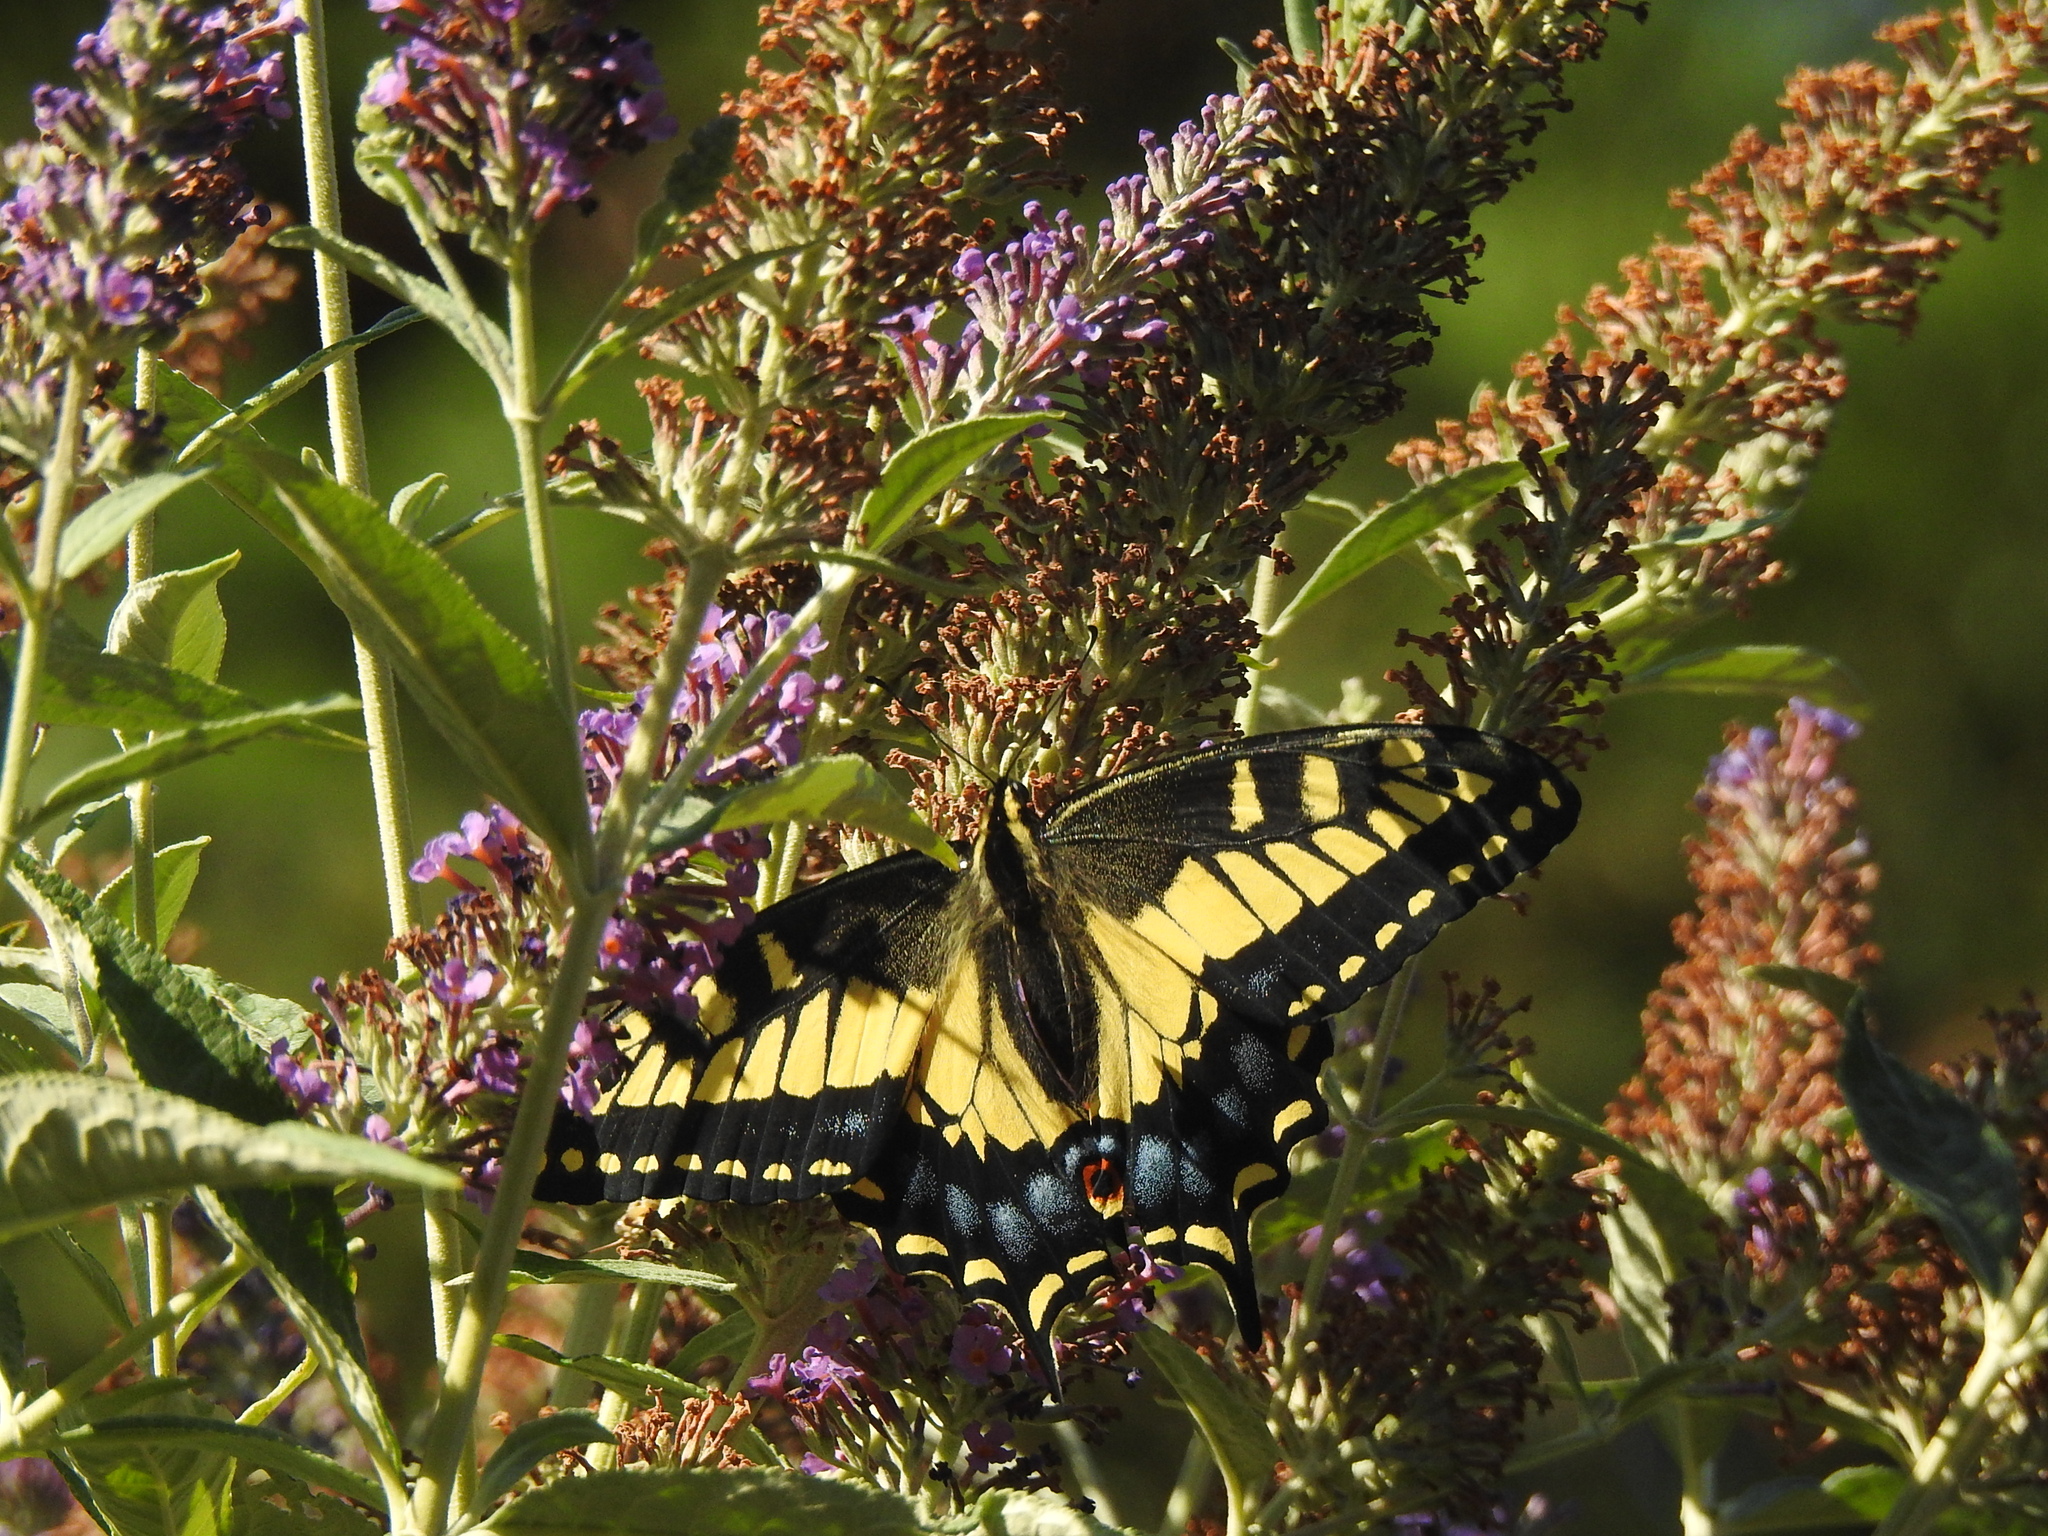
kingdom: Animalia
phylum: Arthropoda
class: Insecta
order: Lepidoptera
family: Papilionidae
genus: Papilio
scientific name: Papilio zelicaon
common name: Anise swallowtail
